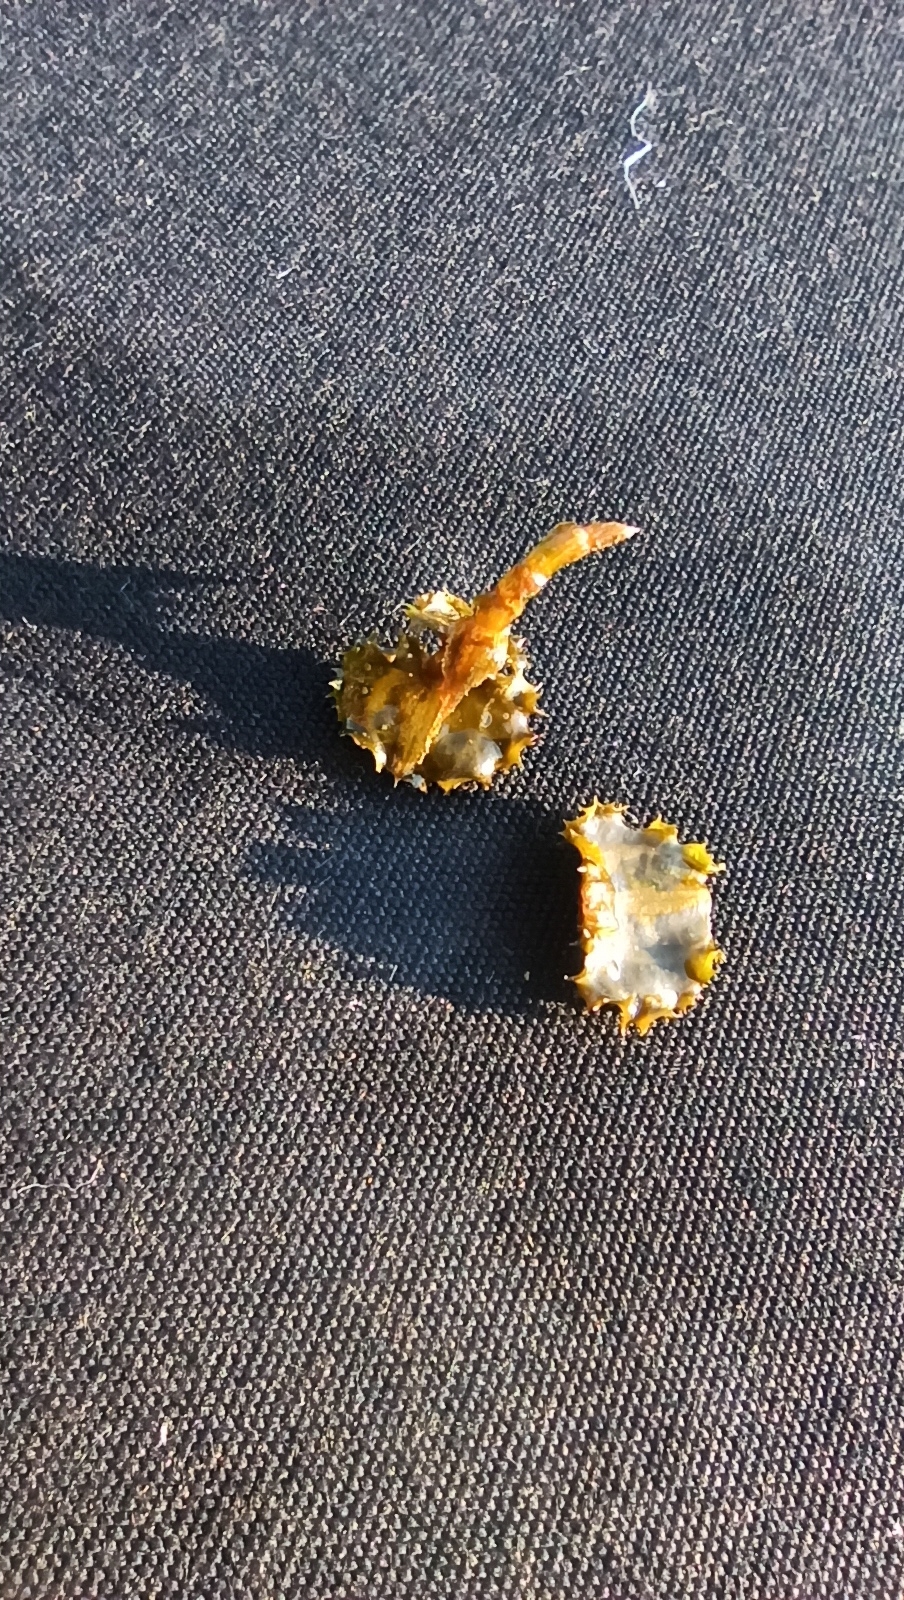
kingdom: Plantae
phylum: Tracheophyta
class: Liliopsida
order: Alismatales
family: Potamogetonaceae
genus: Potamogeton
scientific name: Potamogeton crispus
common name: Curled pondweed
